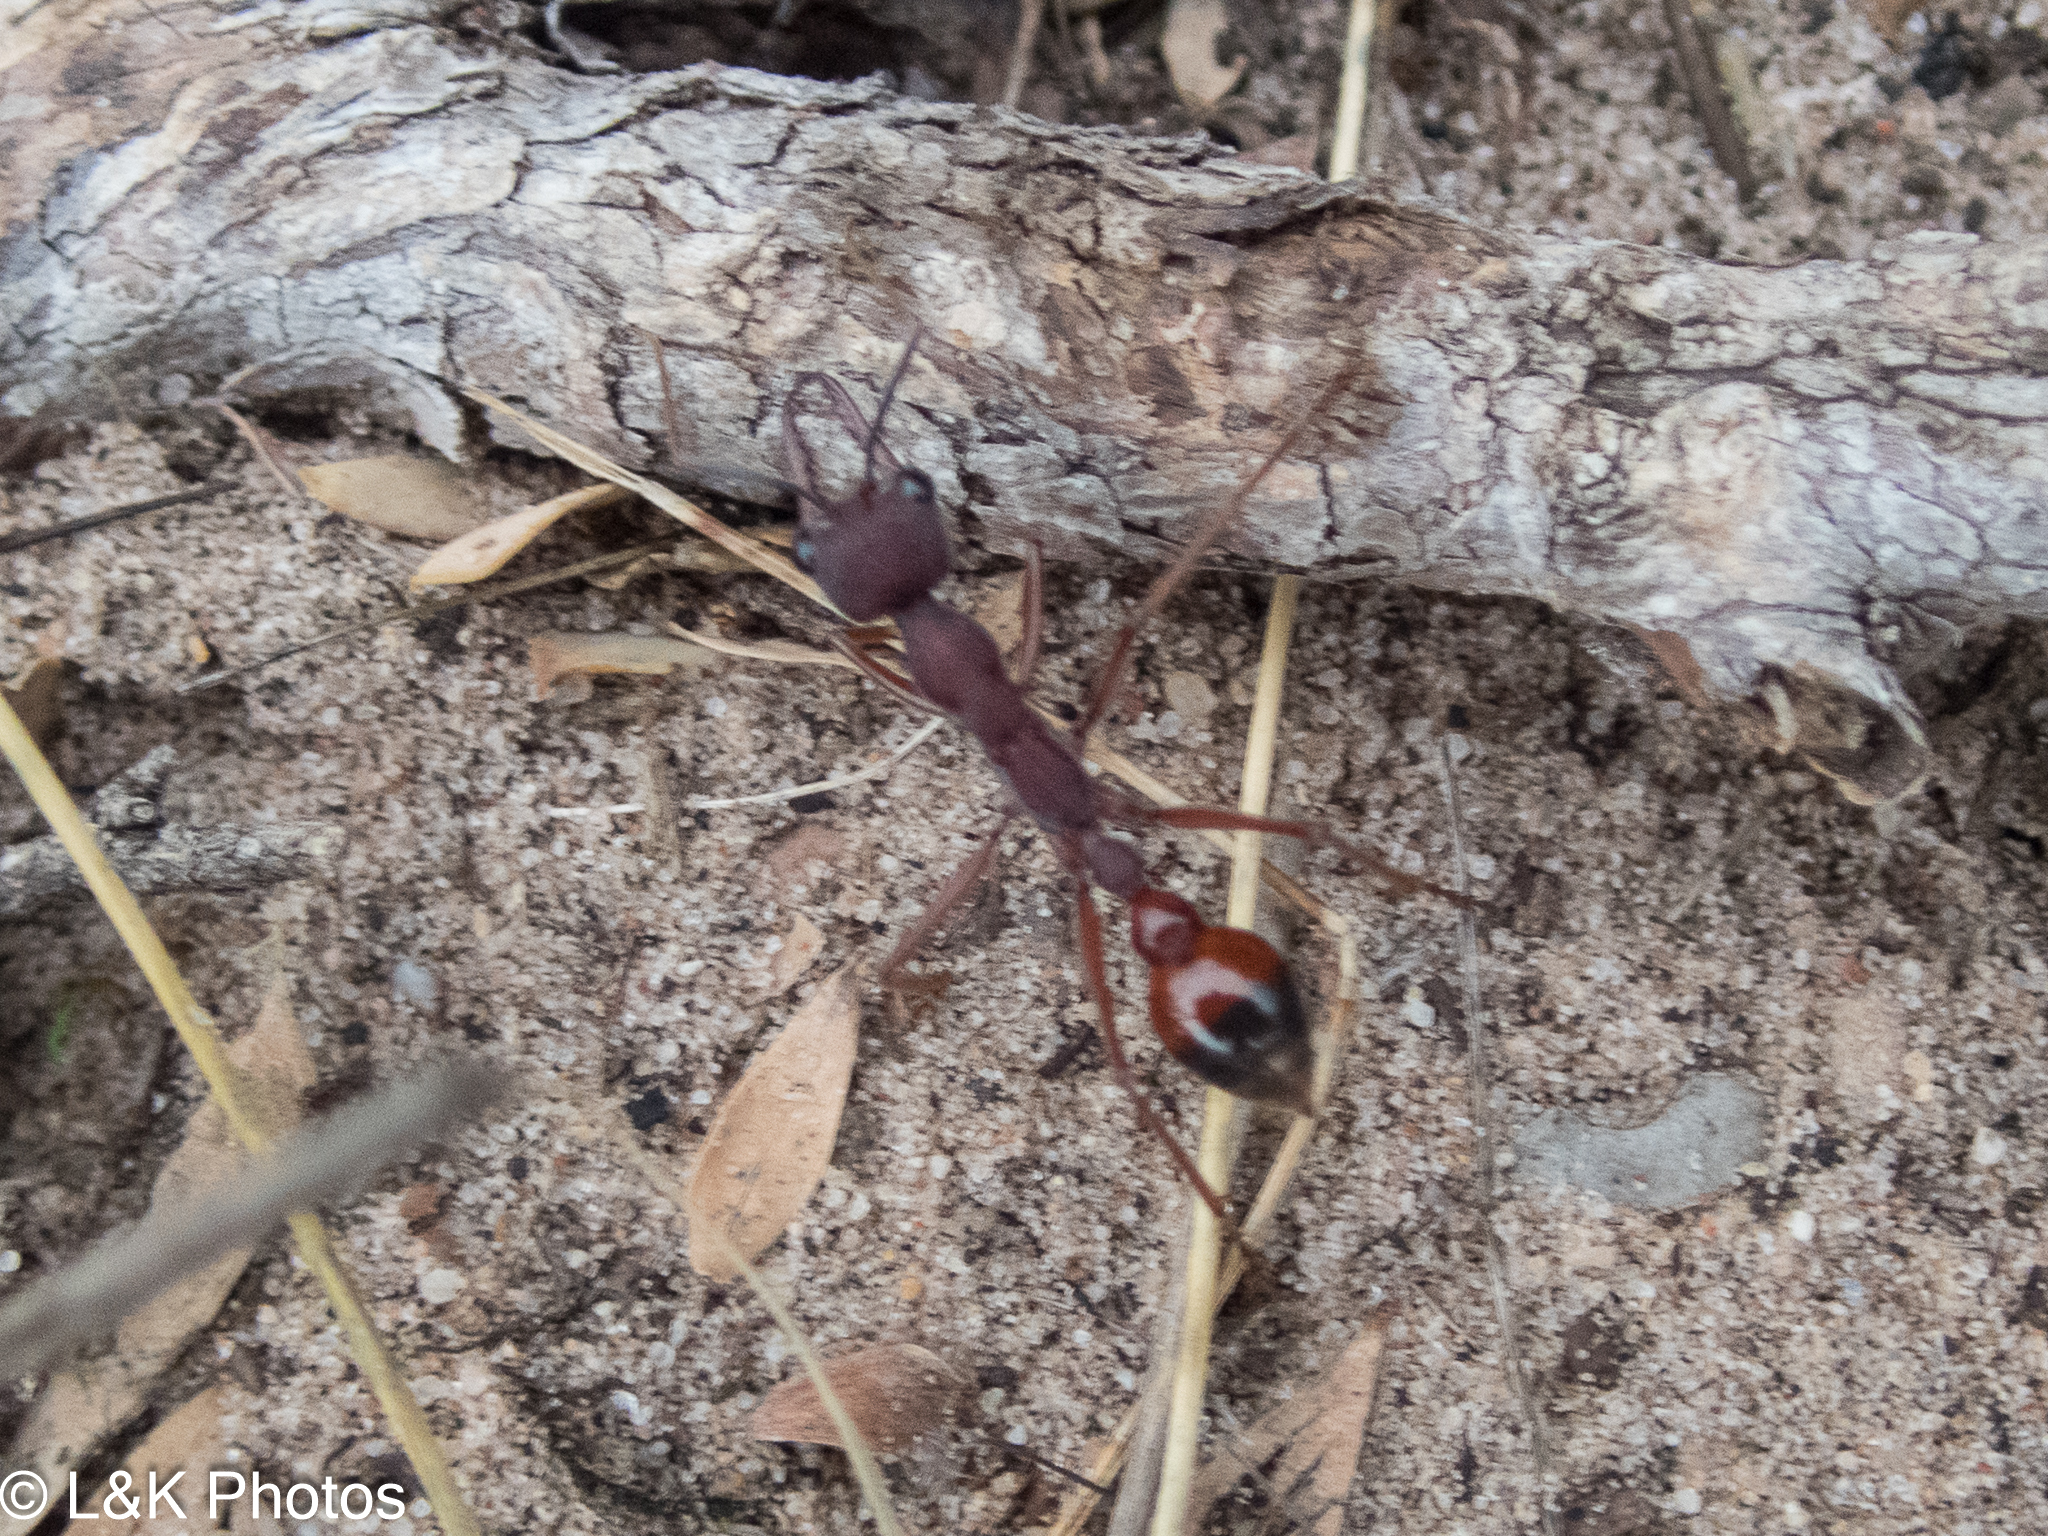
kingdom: Animalia
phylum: Arthropoda
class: Insecta
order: Hymenoptera
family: Formicidae
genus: Myrmecia
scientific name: Myrmecia nigriscapa
